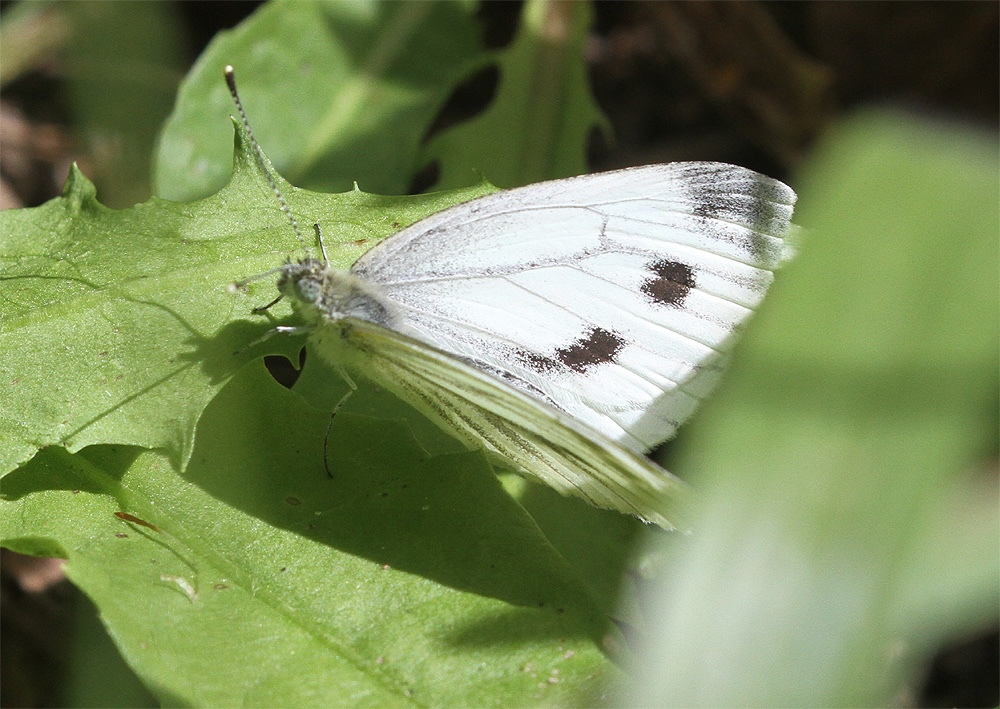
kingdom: Animalia
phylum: Arthropoda
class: Insecta
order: Lepidoptera
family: Pieridae
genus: Pieris
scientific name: Pieris napi
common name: Green-veined white
